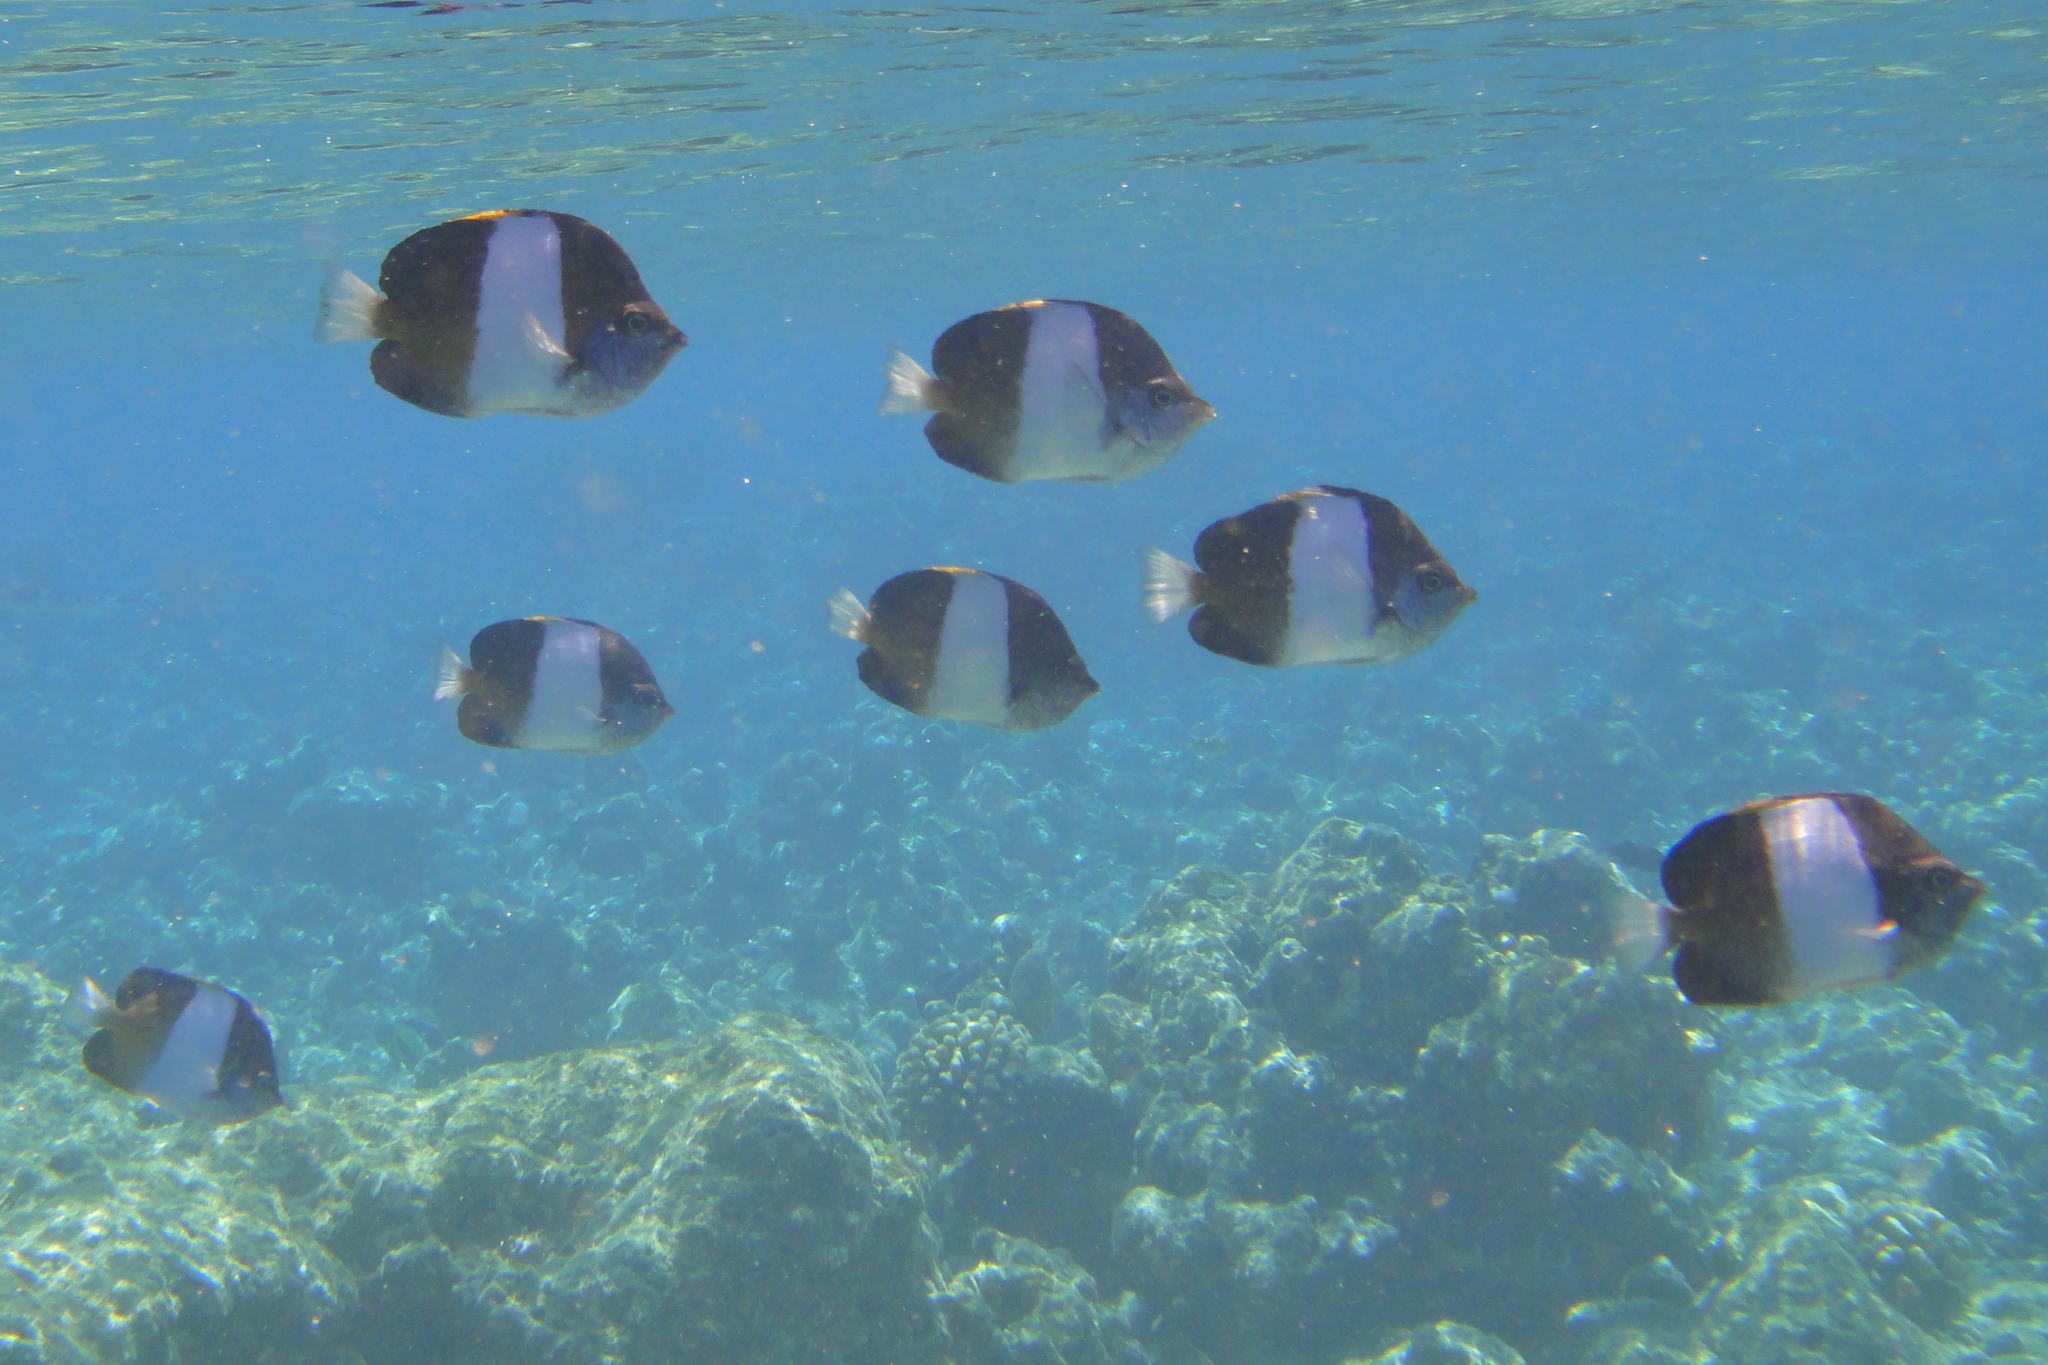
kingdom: Animalia
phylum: Chordata
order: Perciformes
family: Chaetodontidae
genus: Hemitaurichthys
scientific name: Hemitaurichthys zoster
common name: Brown-and-white butterflyfish
